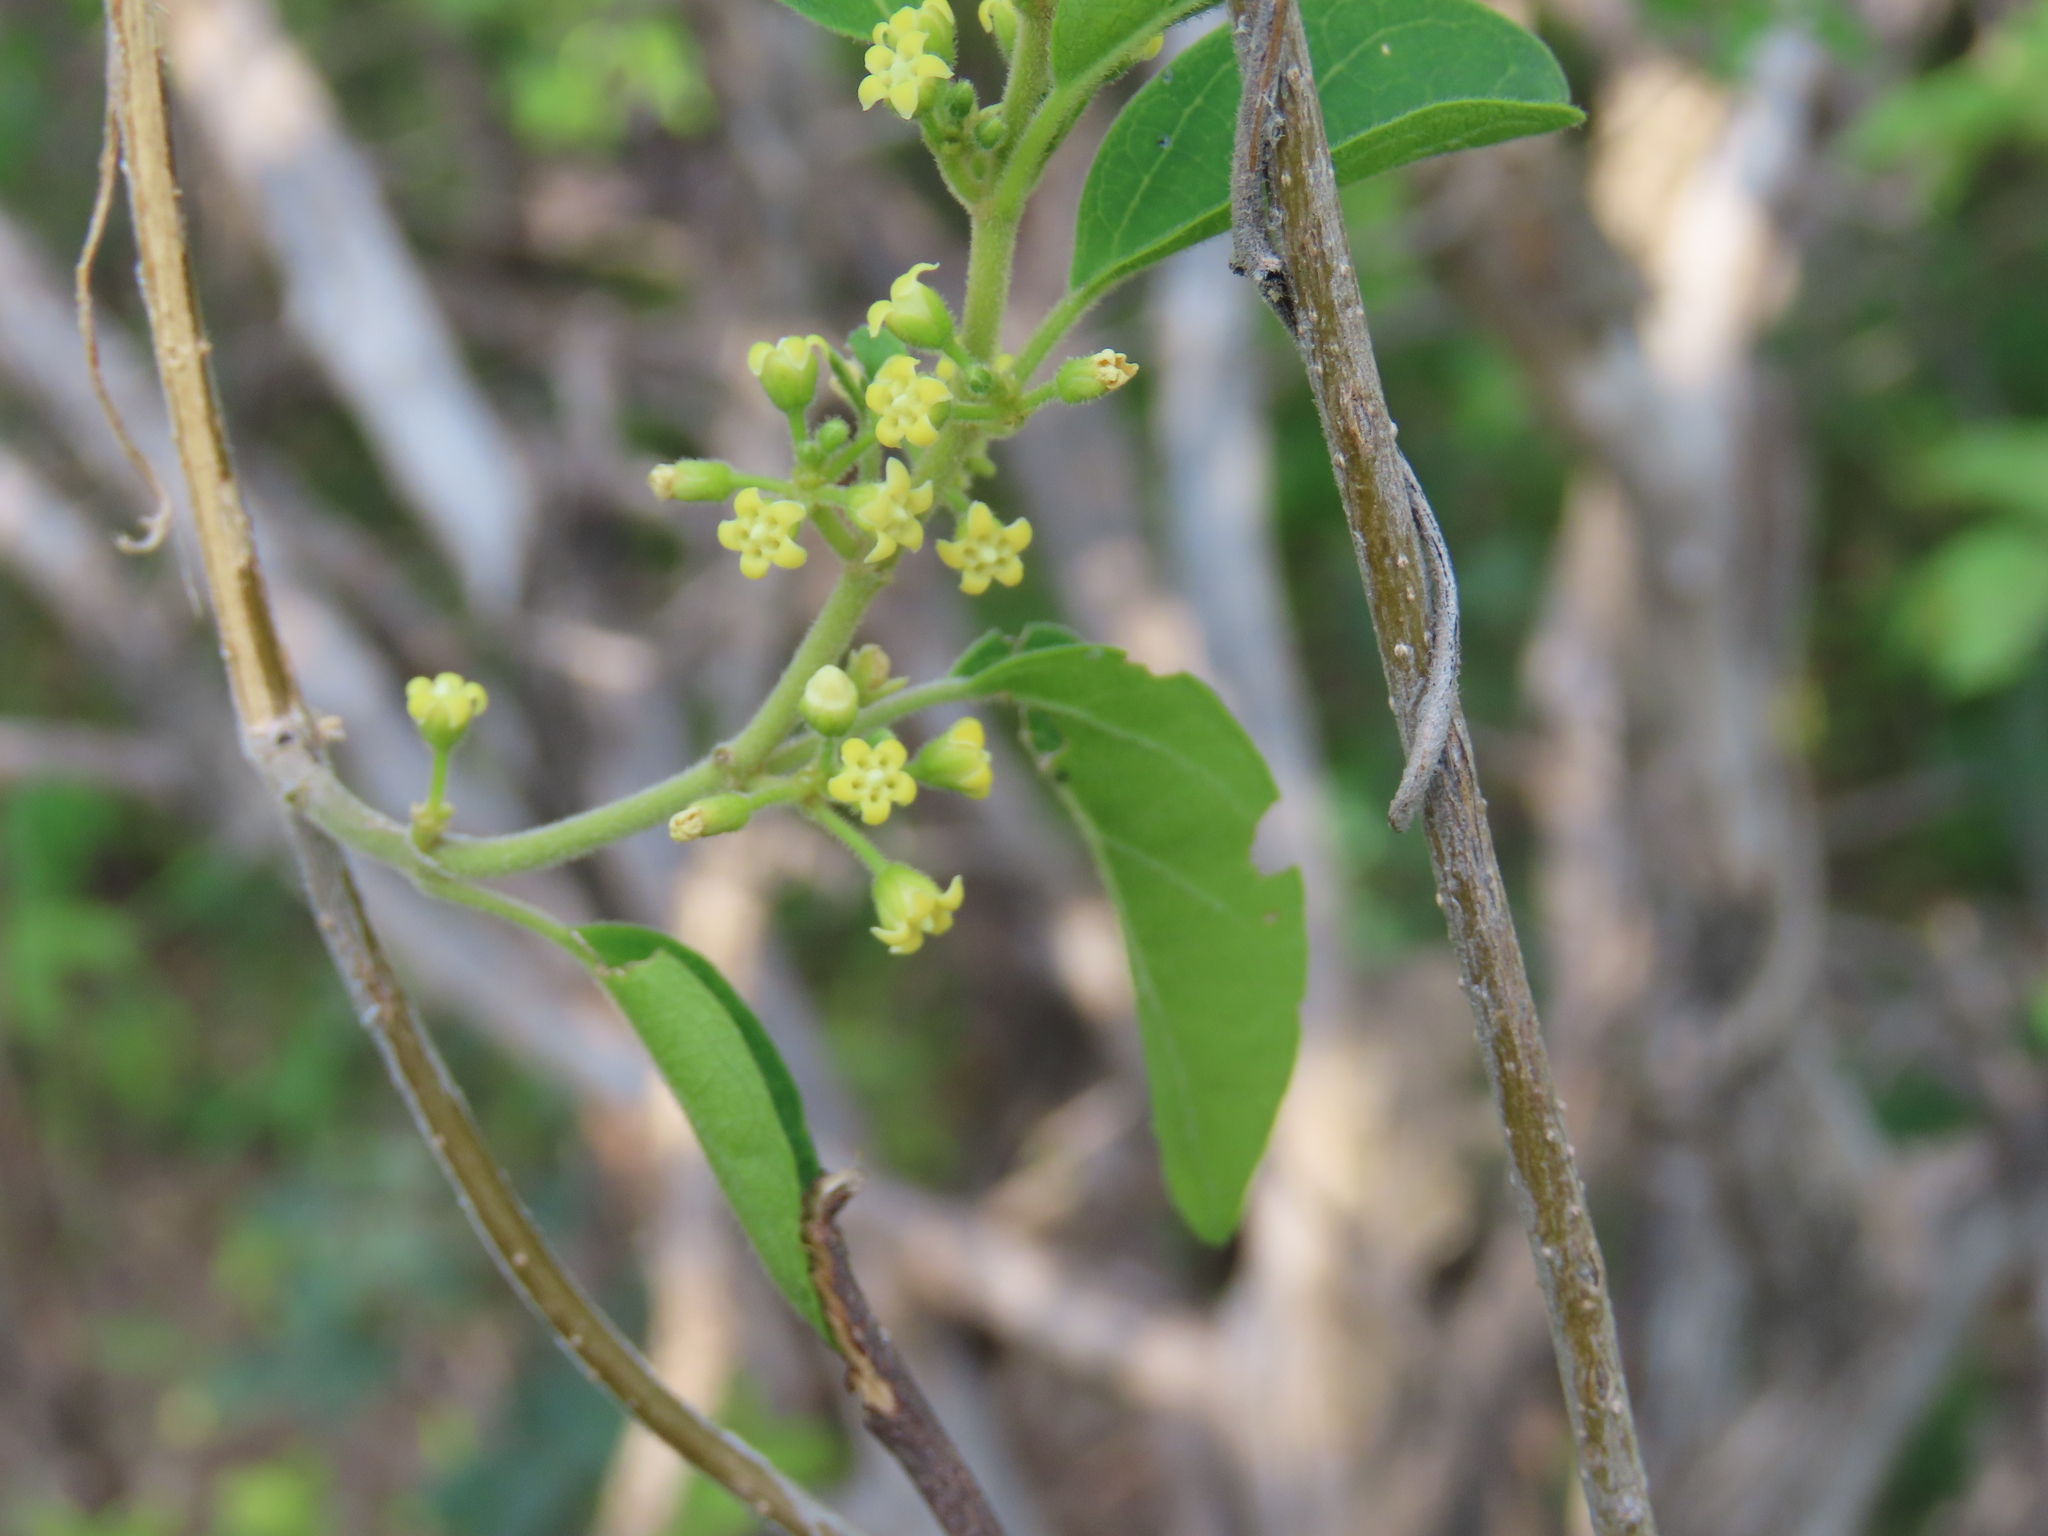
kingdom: Plantae
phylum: Tracheophyta
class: Magnoliopsida
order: Gentianales
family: Apocynaceae
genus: Gymnema
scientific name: Gymnema sylvestre
